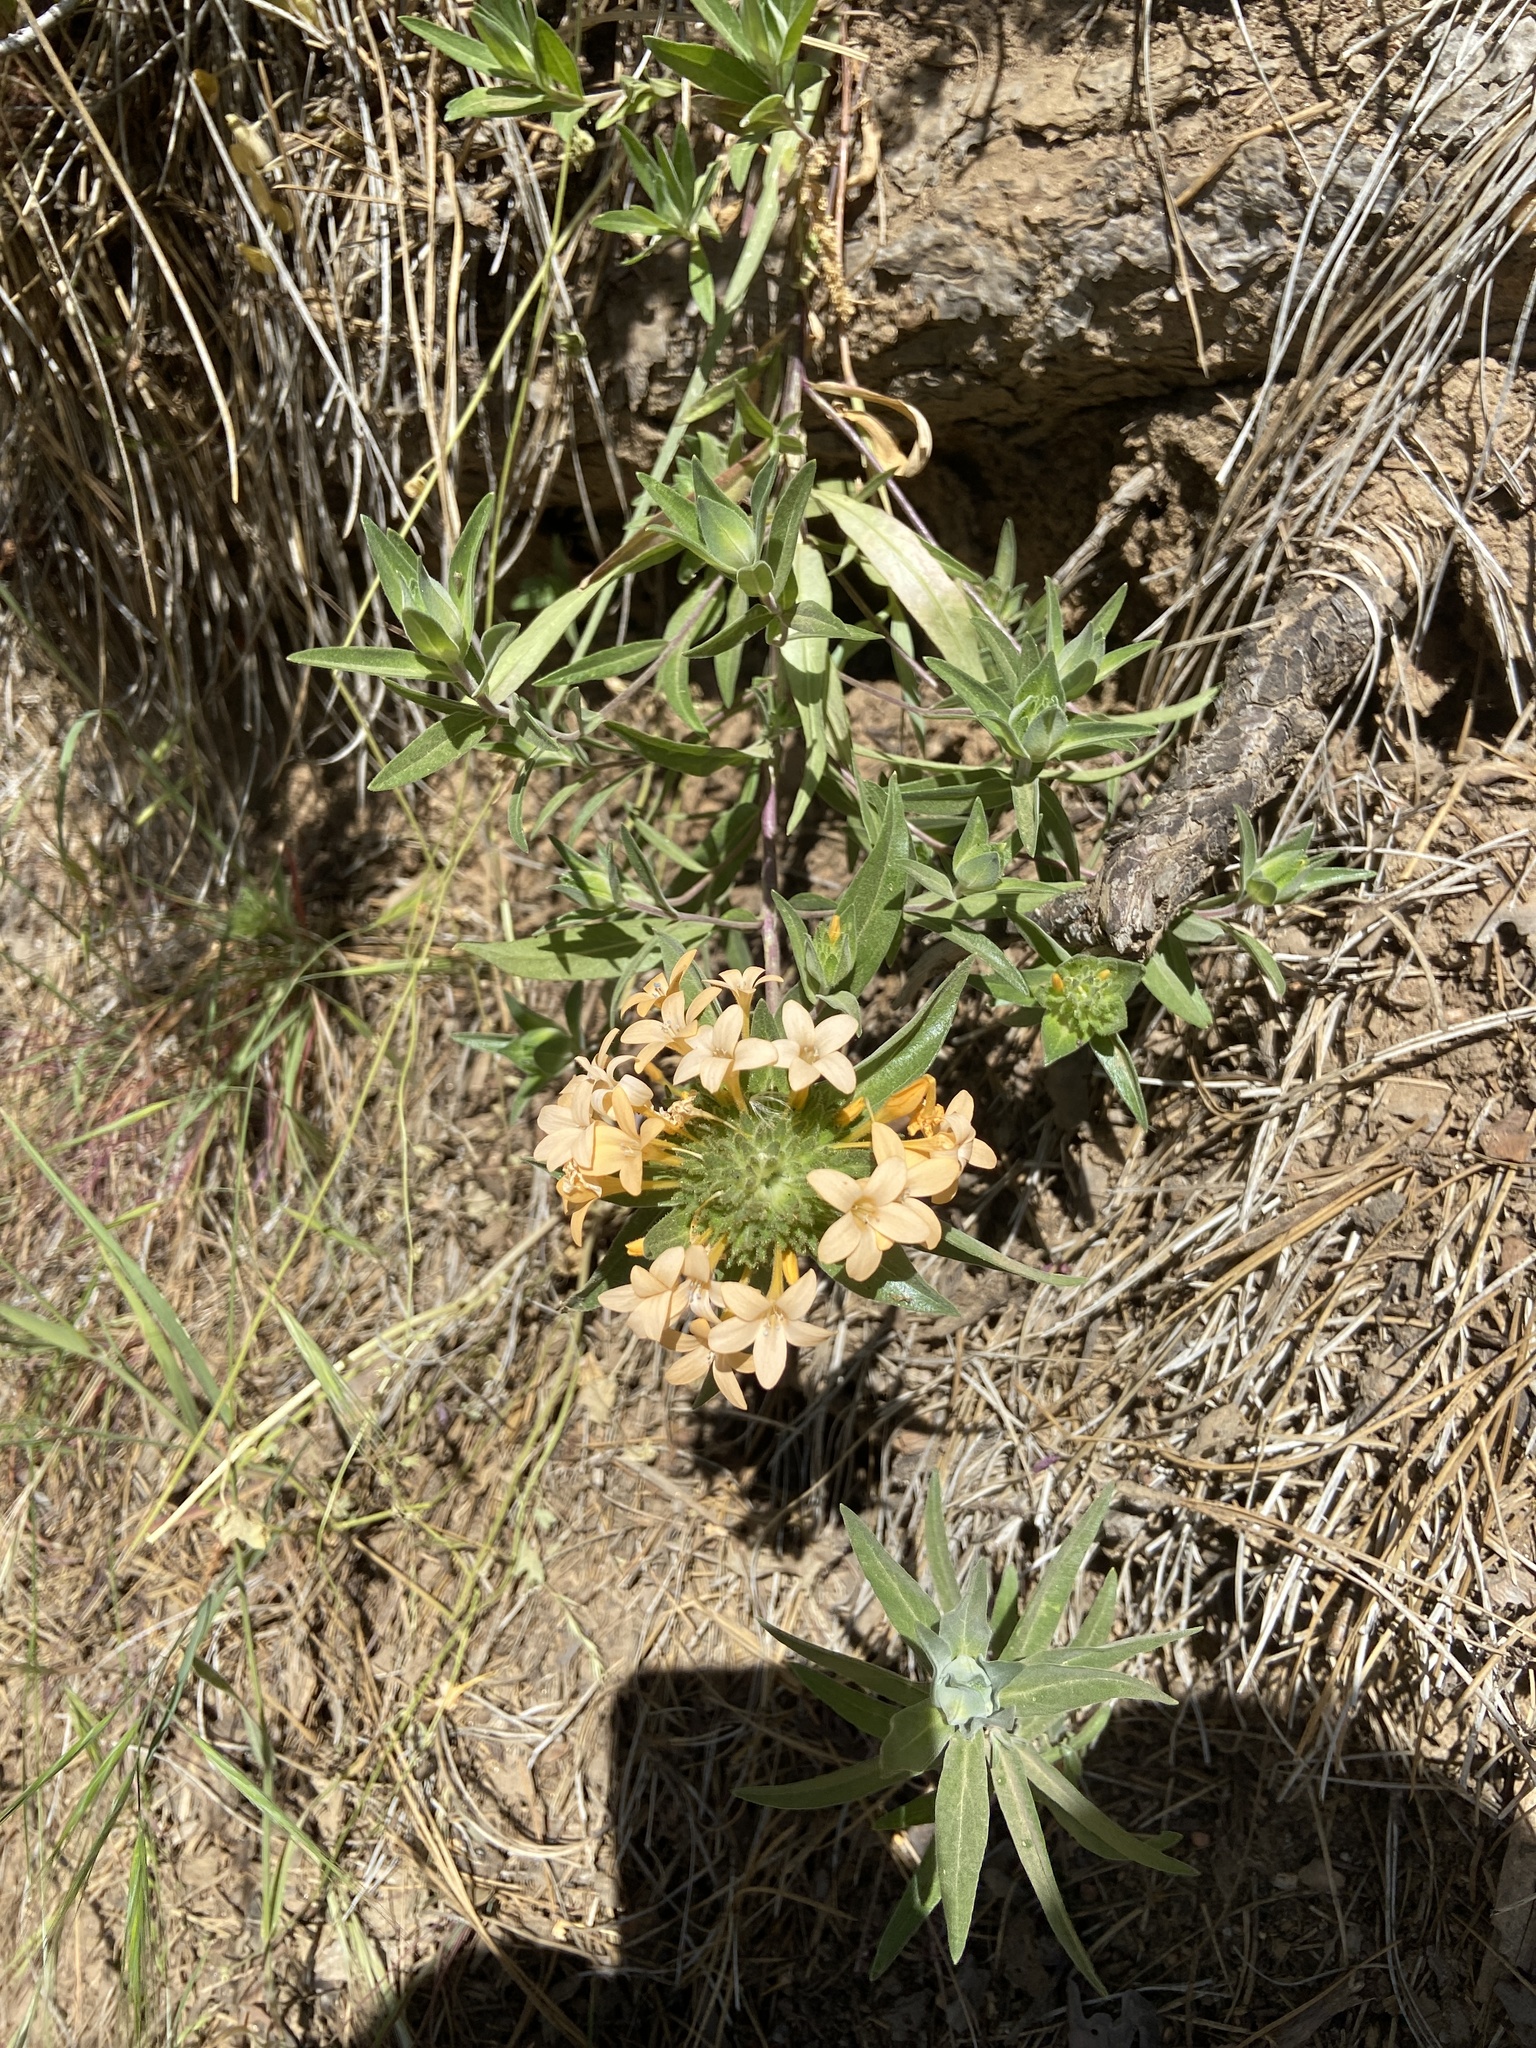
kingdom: Plantae
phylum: Tracheophyta
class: Magnoliopsida
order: Ericales
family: Polemoniaceae
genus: Collomia
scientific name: Collomia grandiflora
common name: California strawflower
